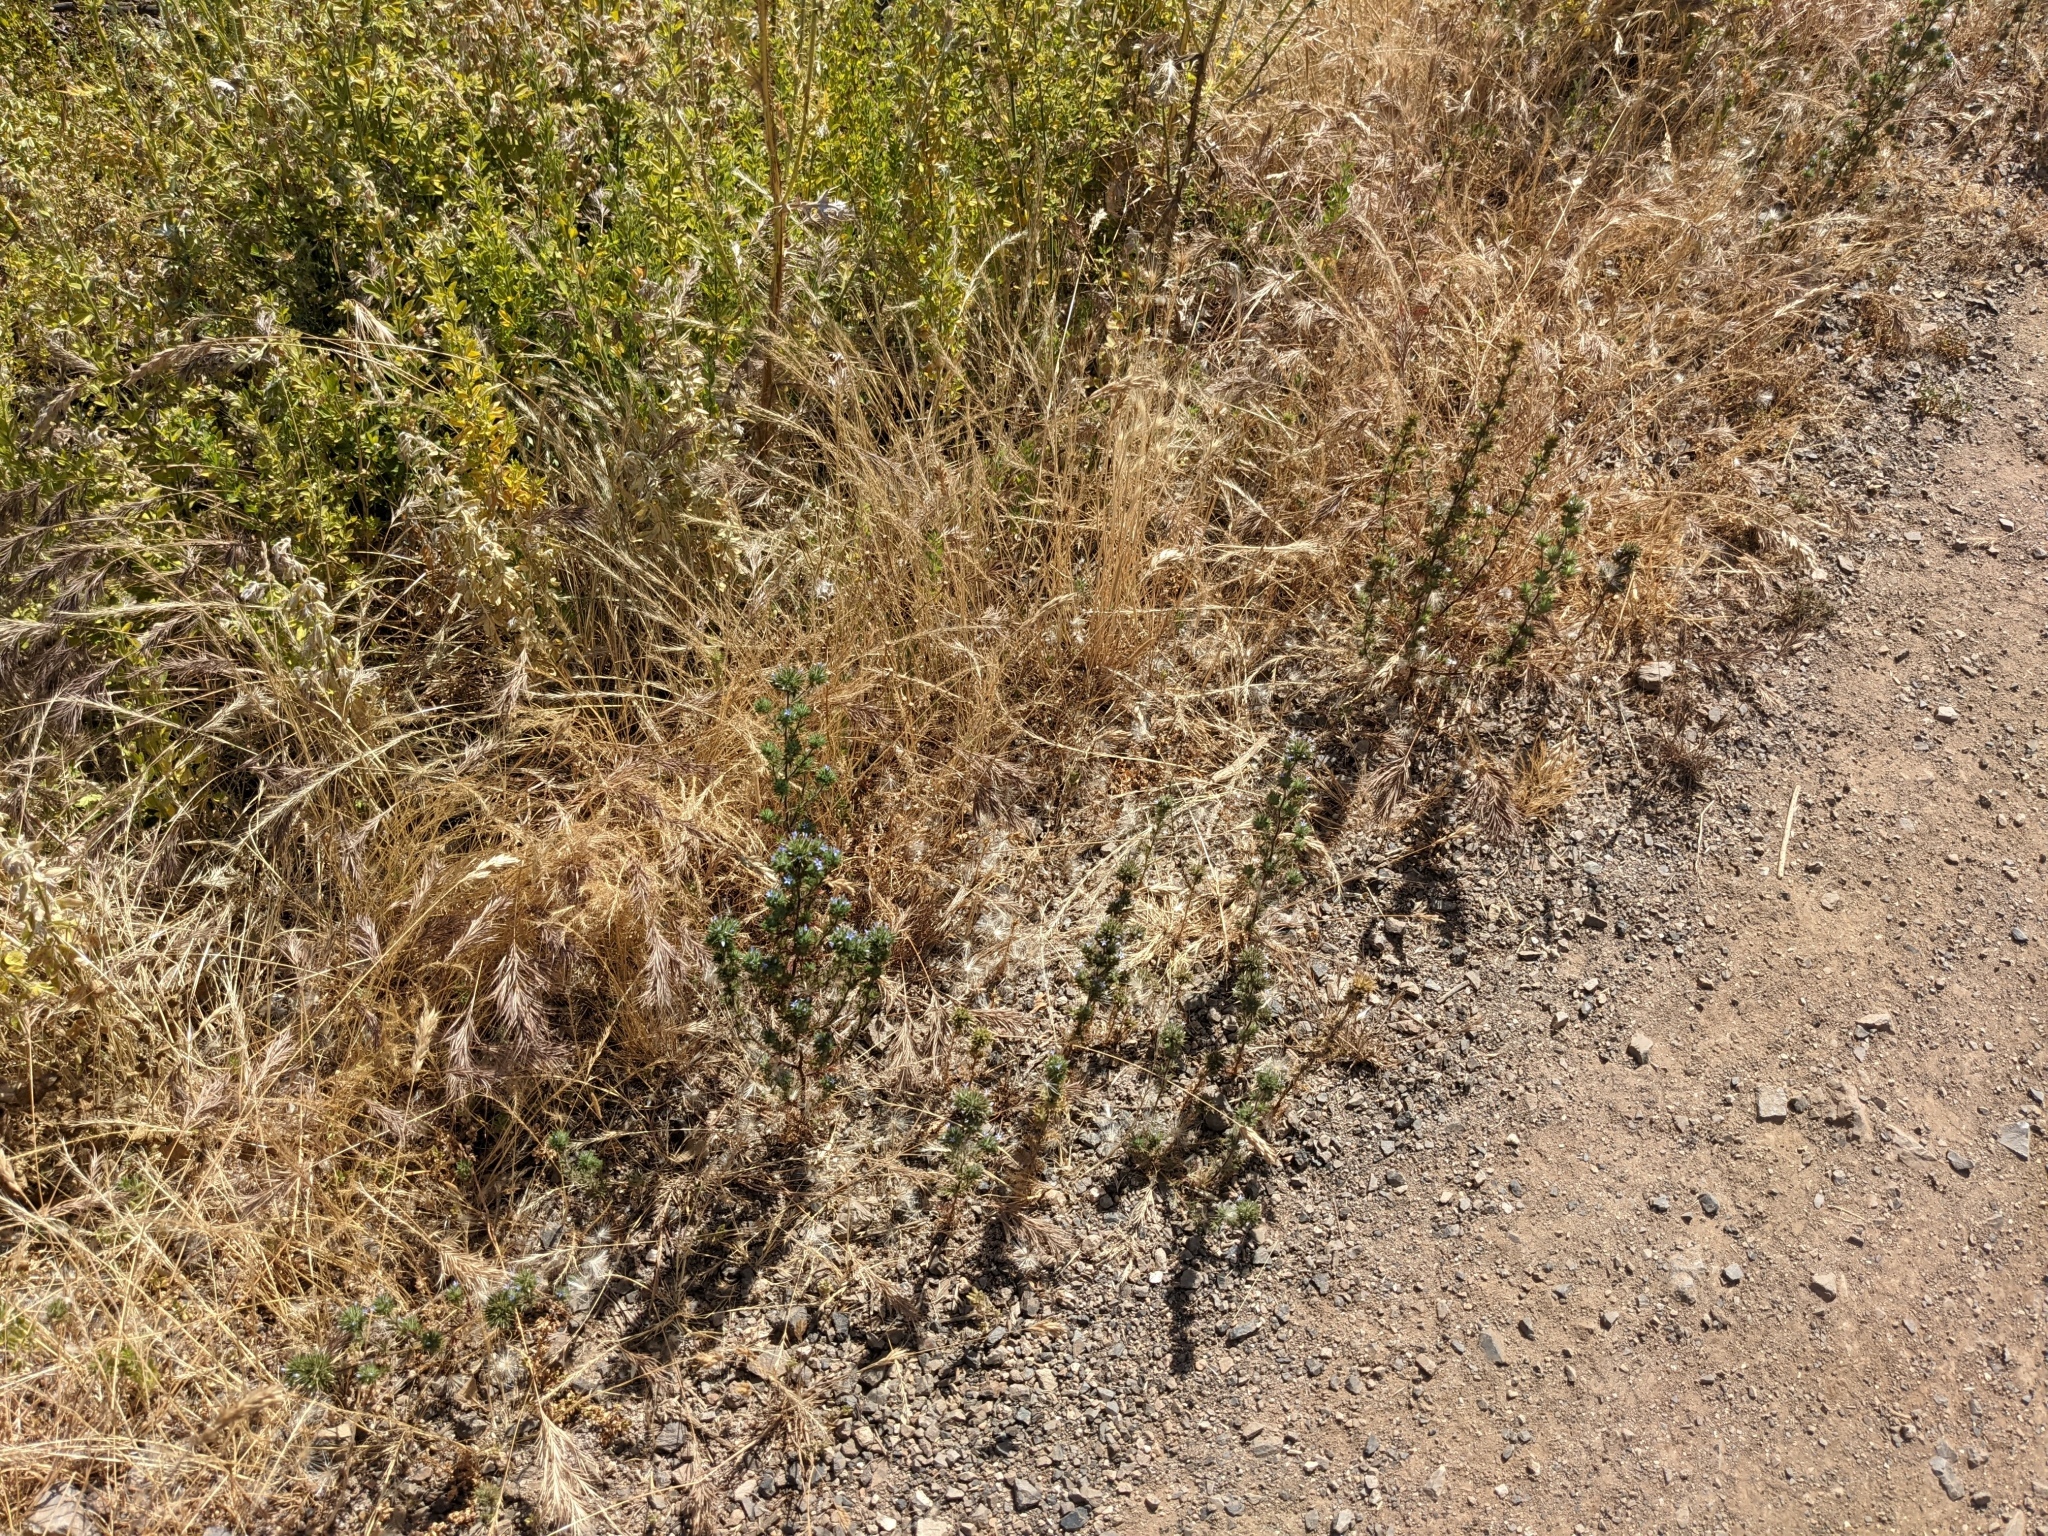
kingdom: Plantae
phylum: Tracheophyta
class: Magnoliopsida
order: Ericales
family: Polemoniaceae
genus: Navarretia
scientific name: Navarretia squarrosa
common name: Skunkweed
